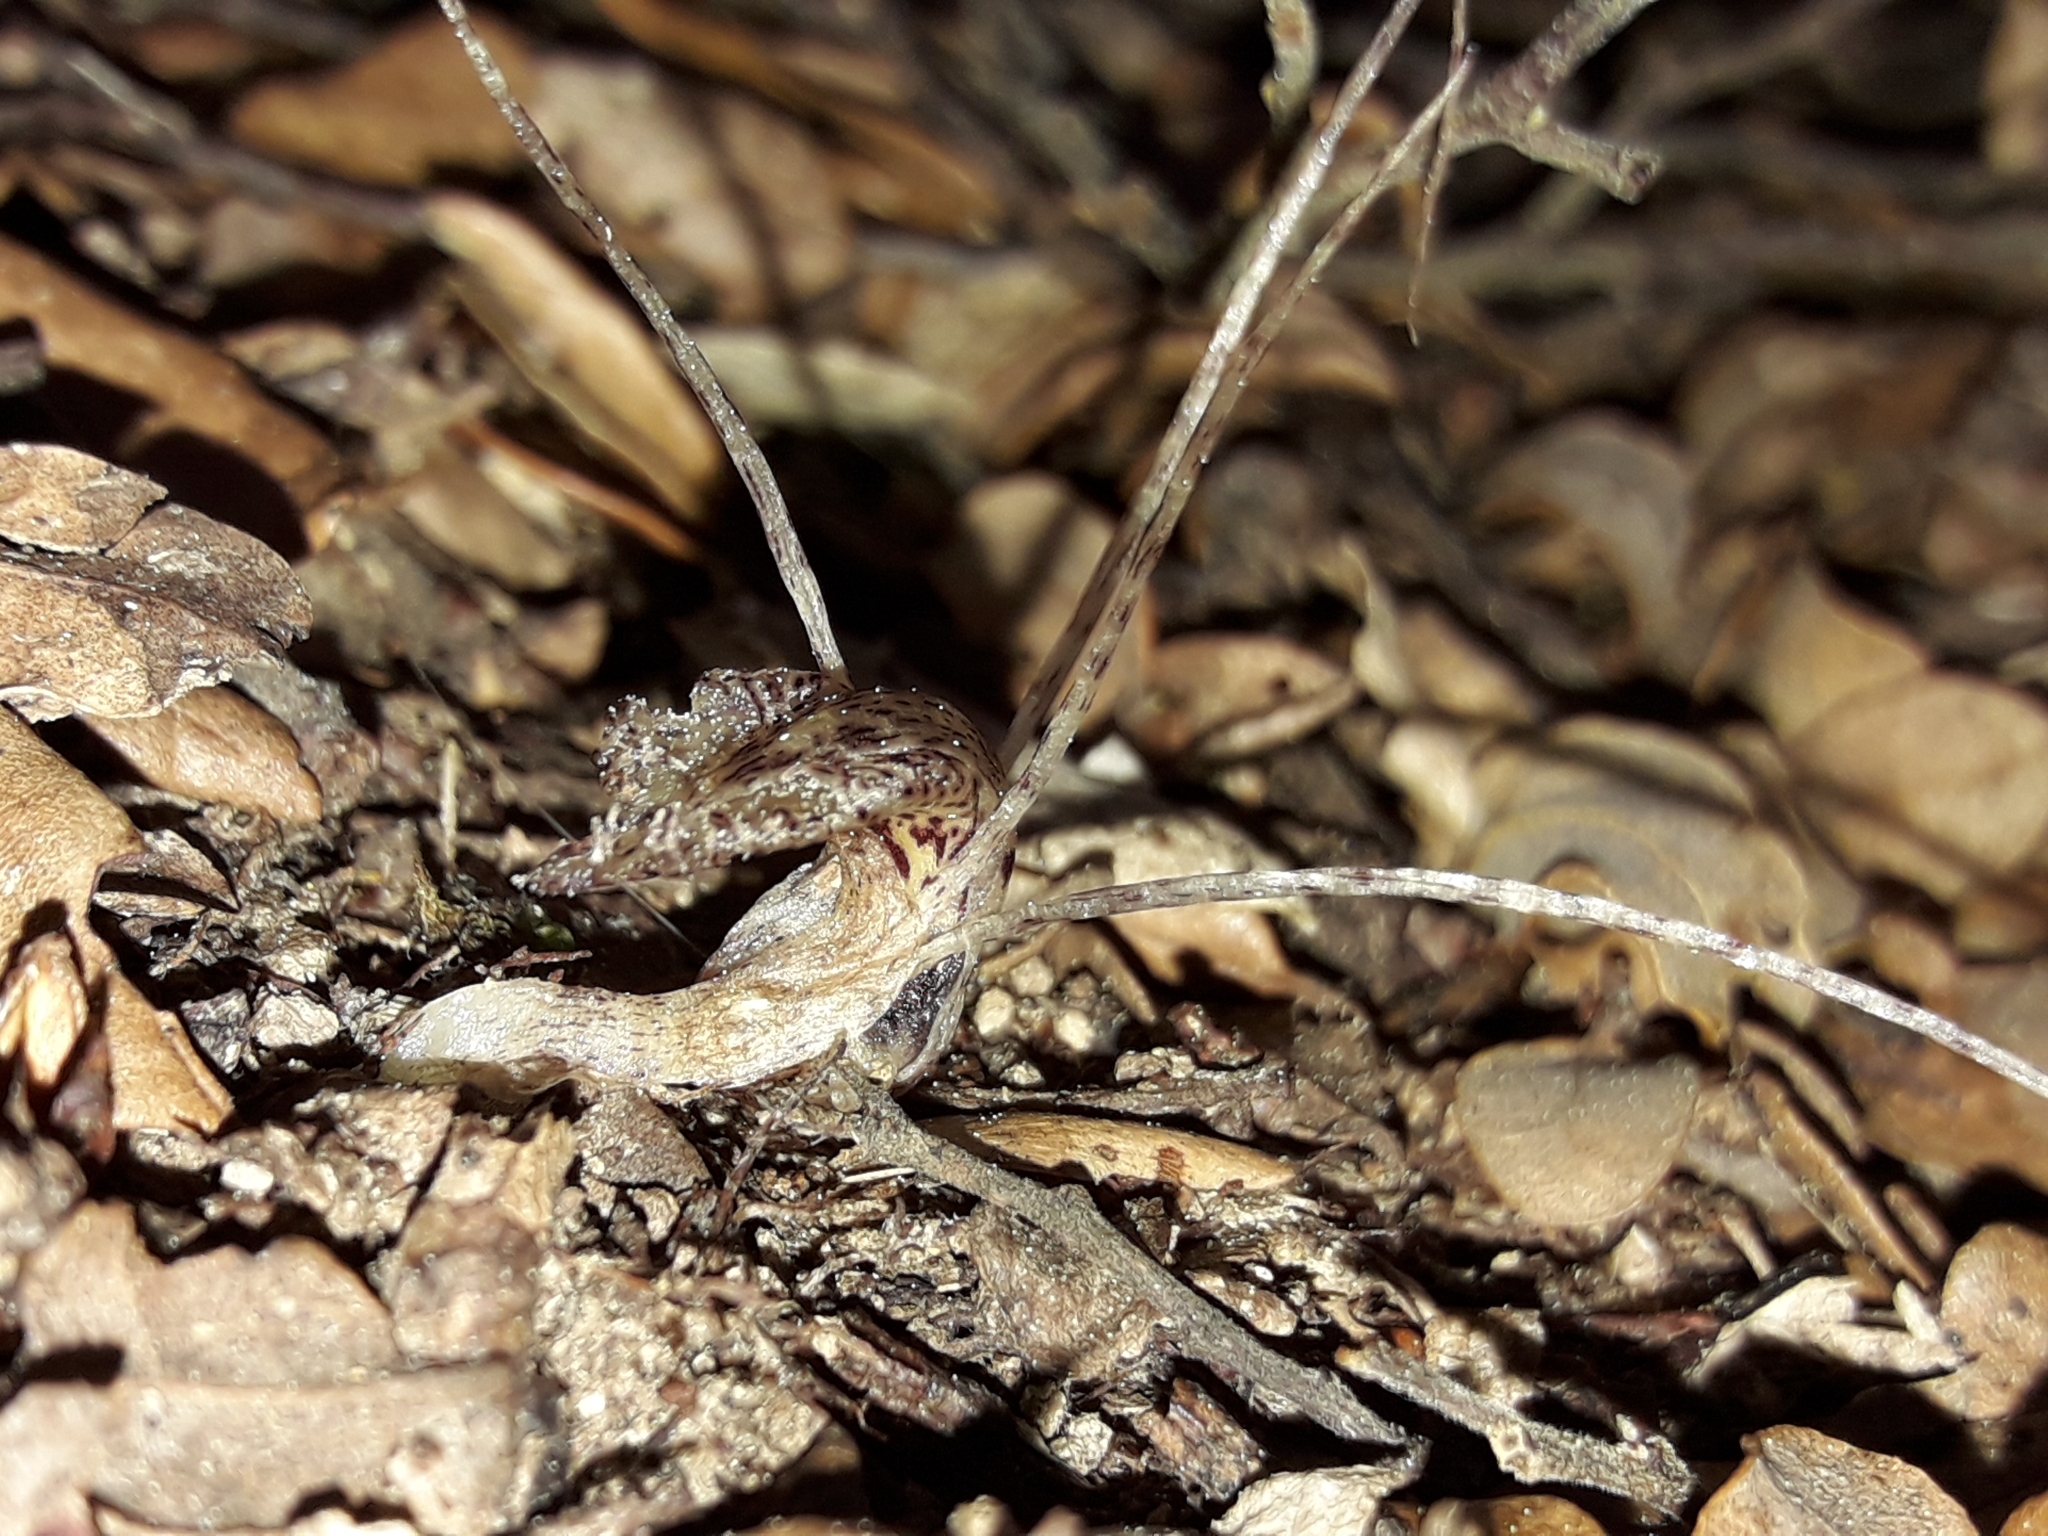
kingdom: Plantae
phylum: Tracheophyta
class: Liliopsida
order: Asparagales
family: Orchidaceae
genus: Corybas
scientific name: Corybas cryptanthus
